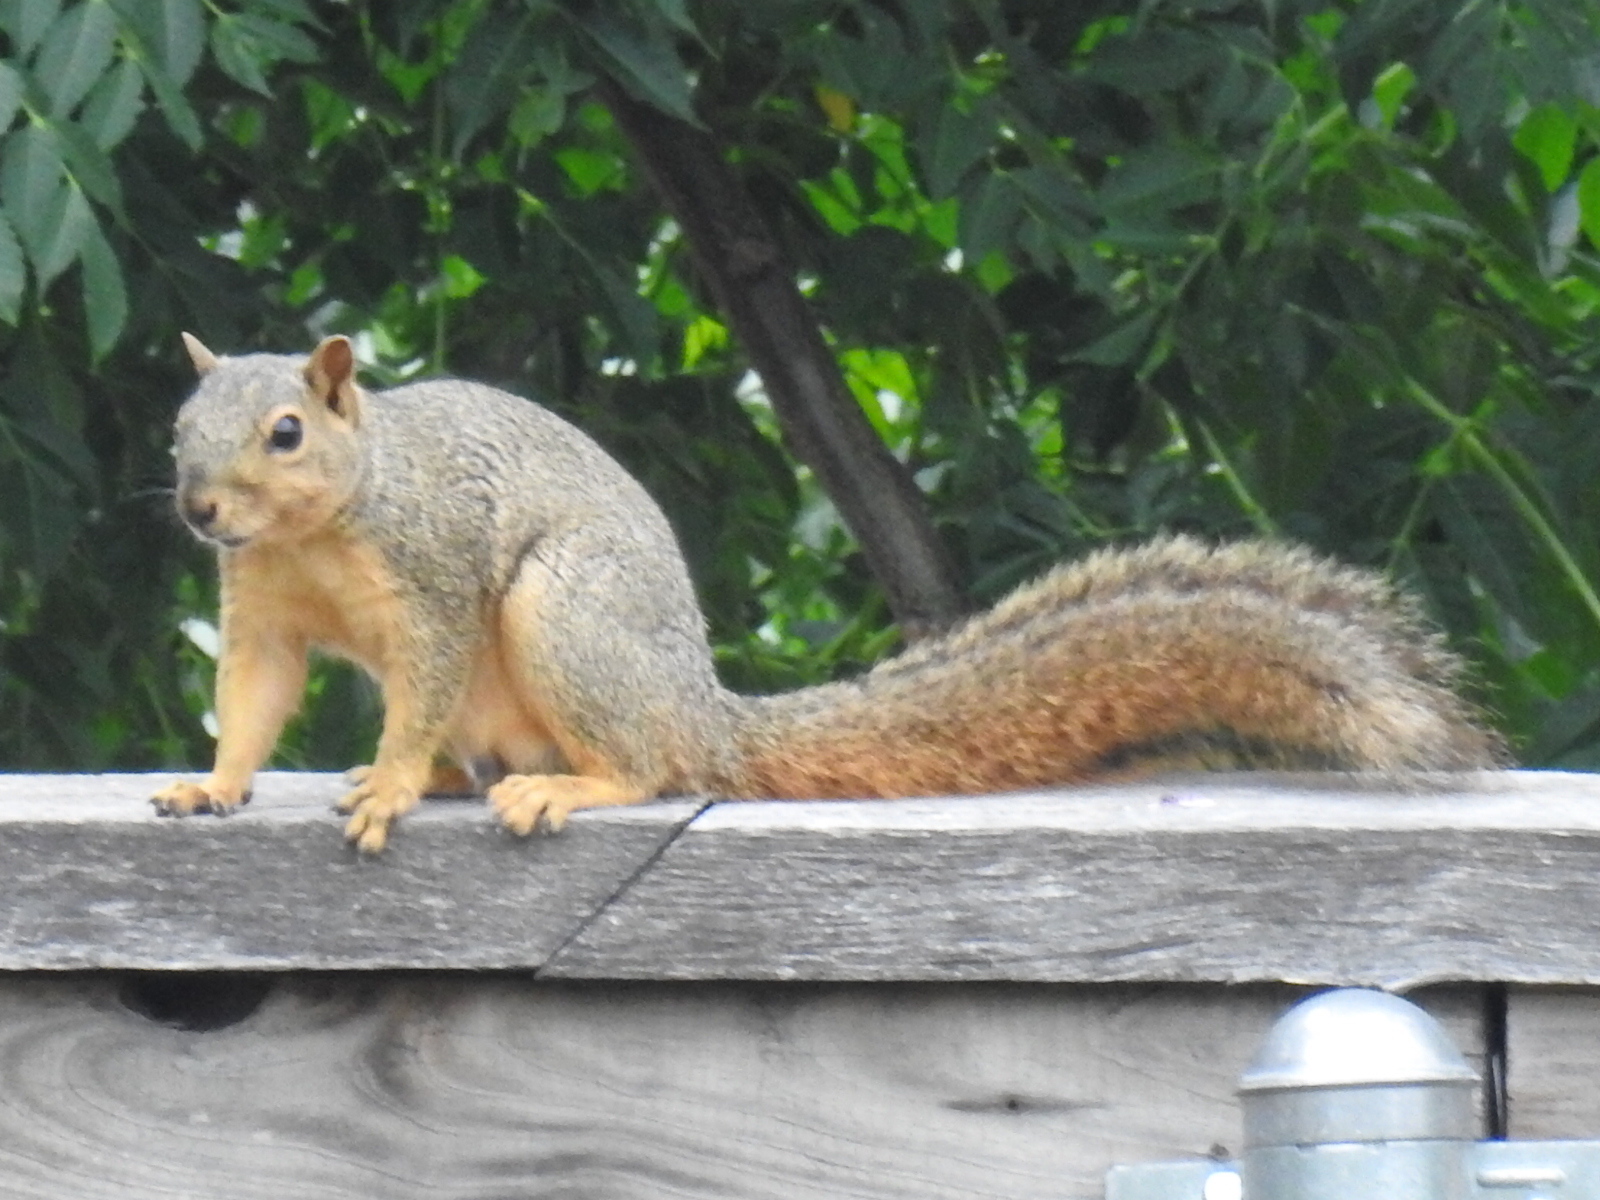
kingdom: Animalia
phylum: Chordata
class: Mammalia
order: Rodentia
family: Sciuridae
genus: Sciurus
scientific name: Sciurus niger
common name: Fox squirrel
